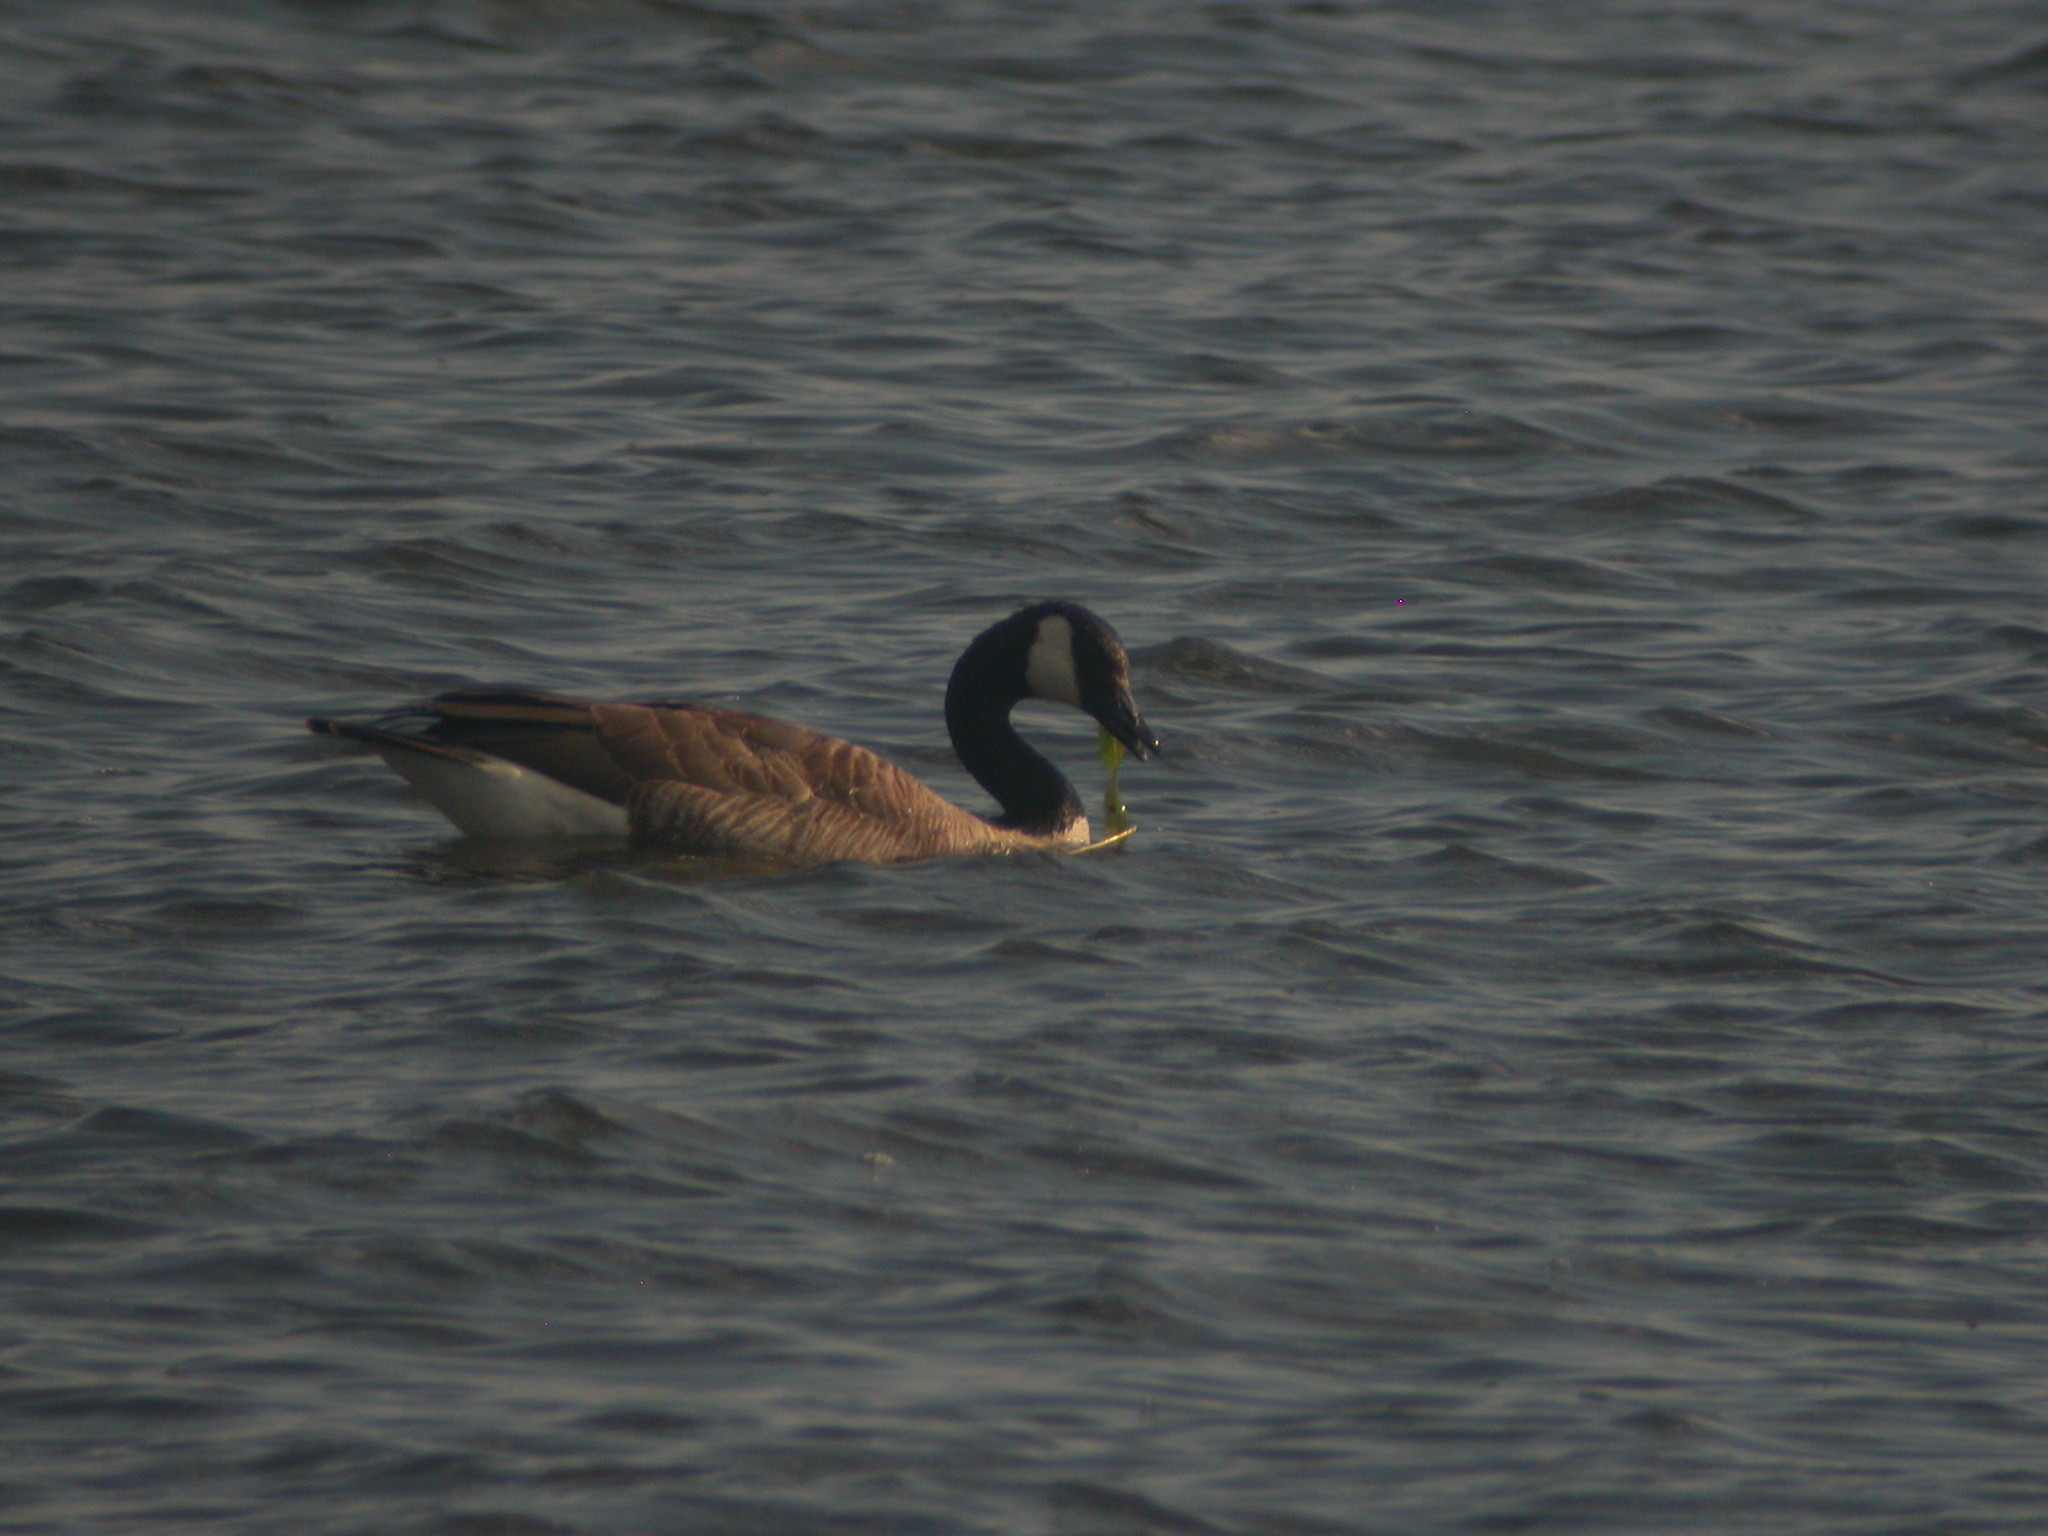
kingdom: Animalia
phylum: Chordata
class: Aves
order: Anseriformes
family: Anatidae
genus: Branta
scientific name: Branta canadensis
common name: Canada goose
